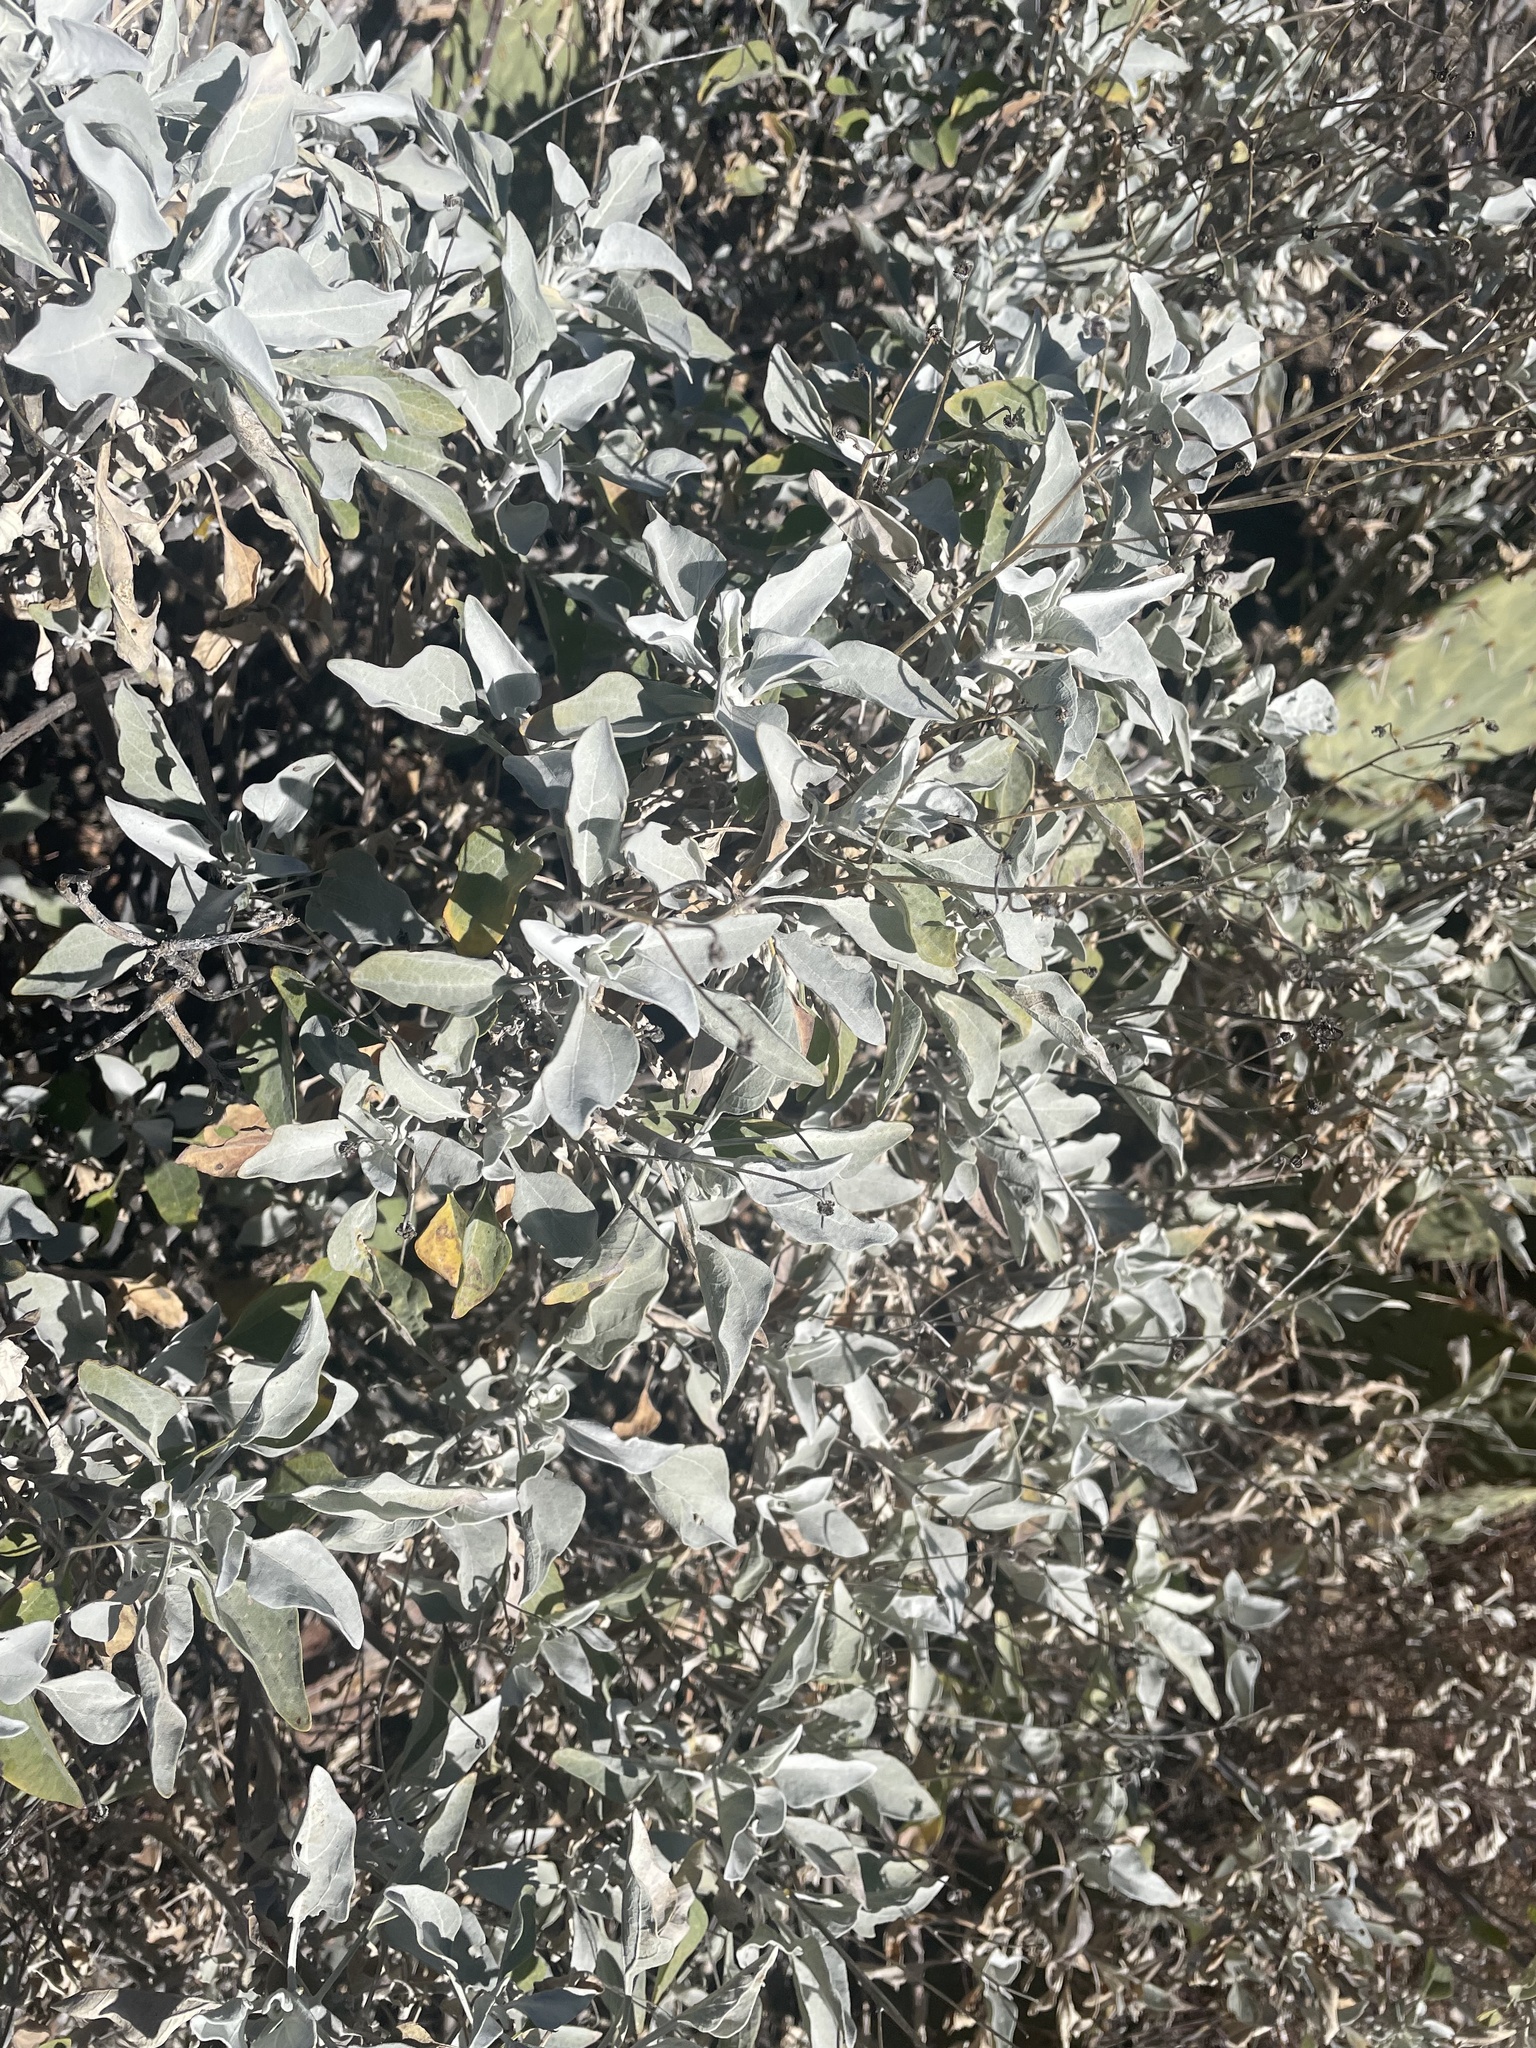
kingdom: Plantae
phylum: Tracheophyta
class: Magnoliopsida
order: Asterales
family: Asteraceae
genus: Encelia
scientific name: Encelia farinosa
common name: Brittlebush
